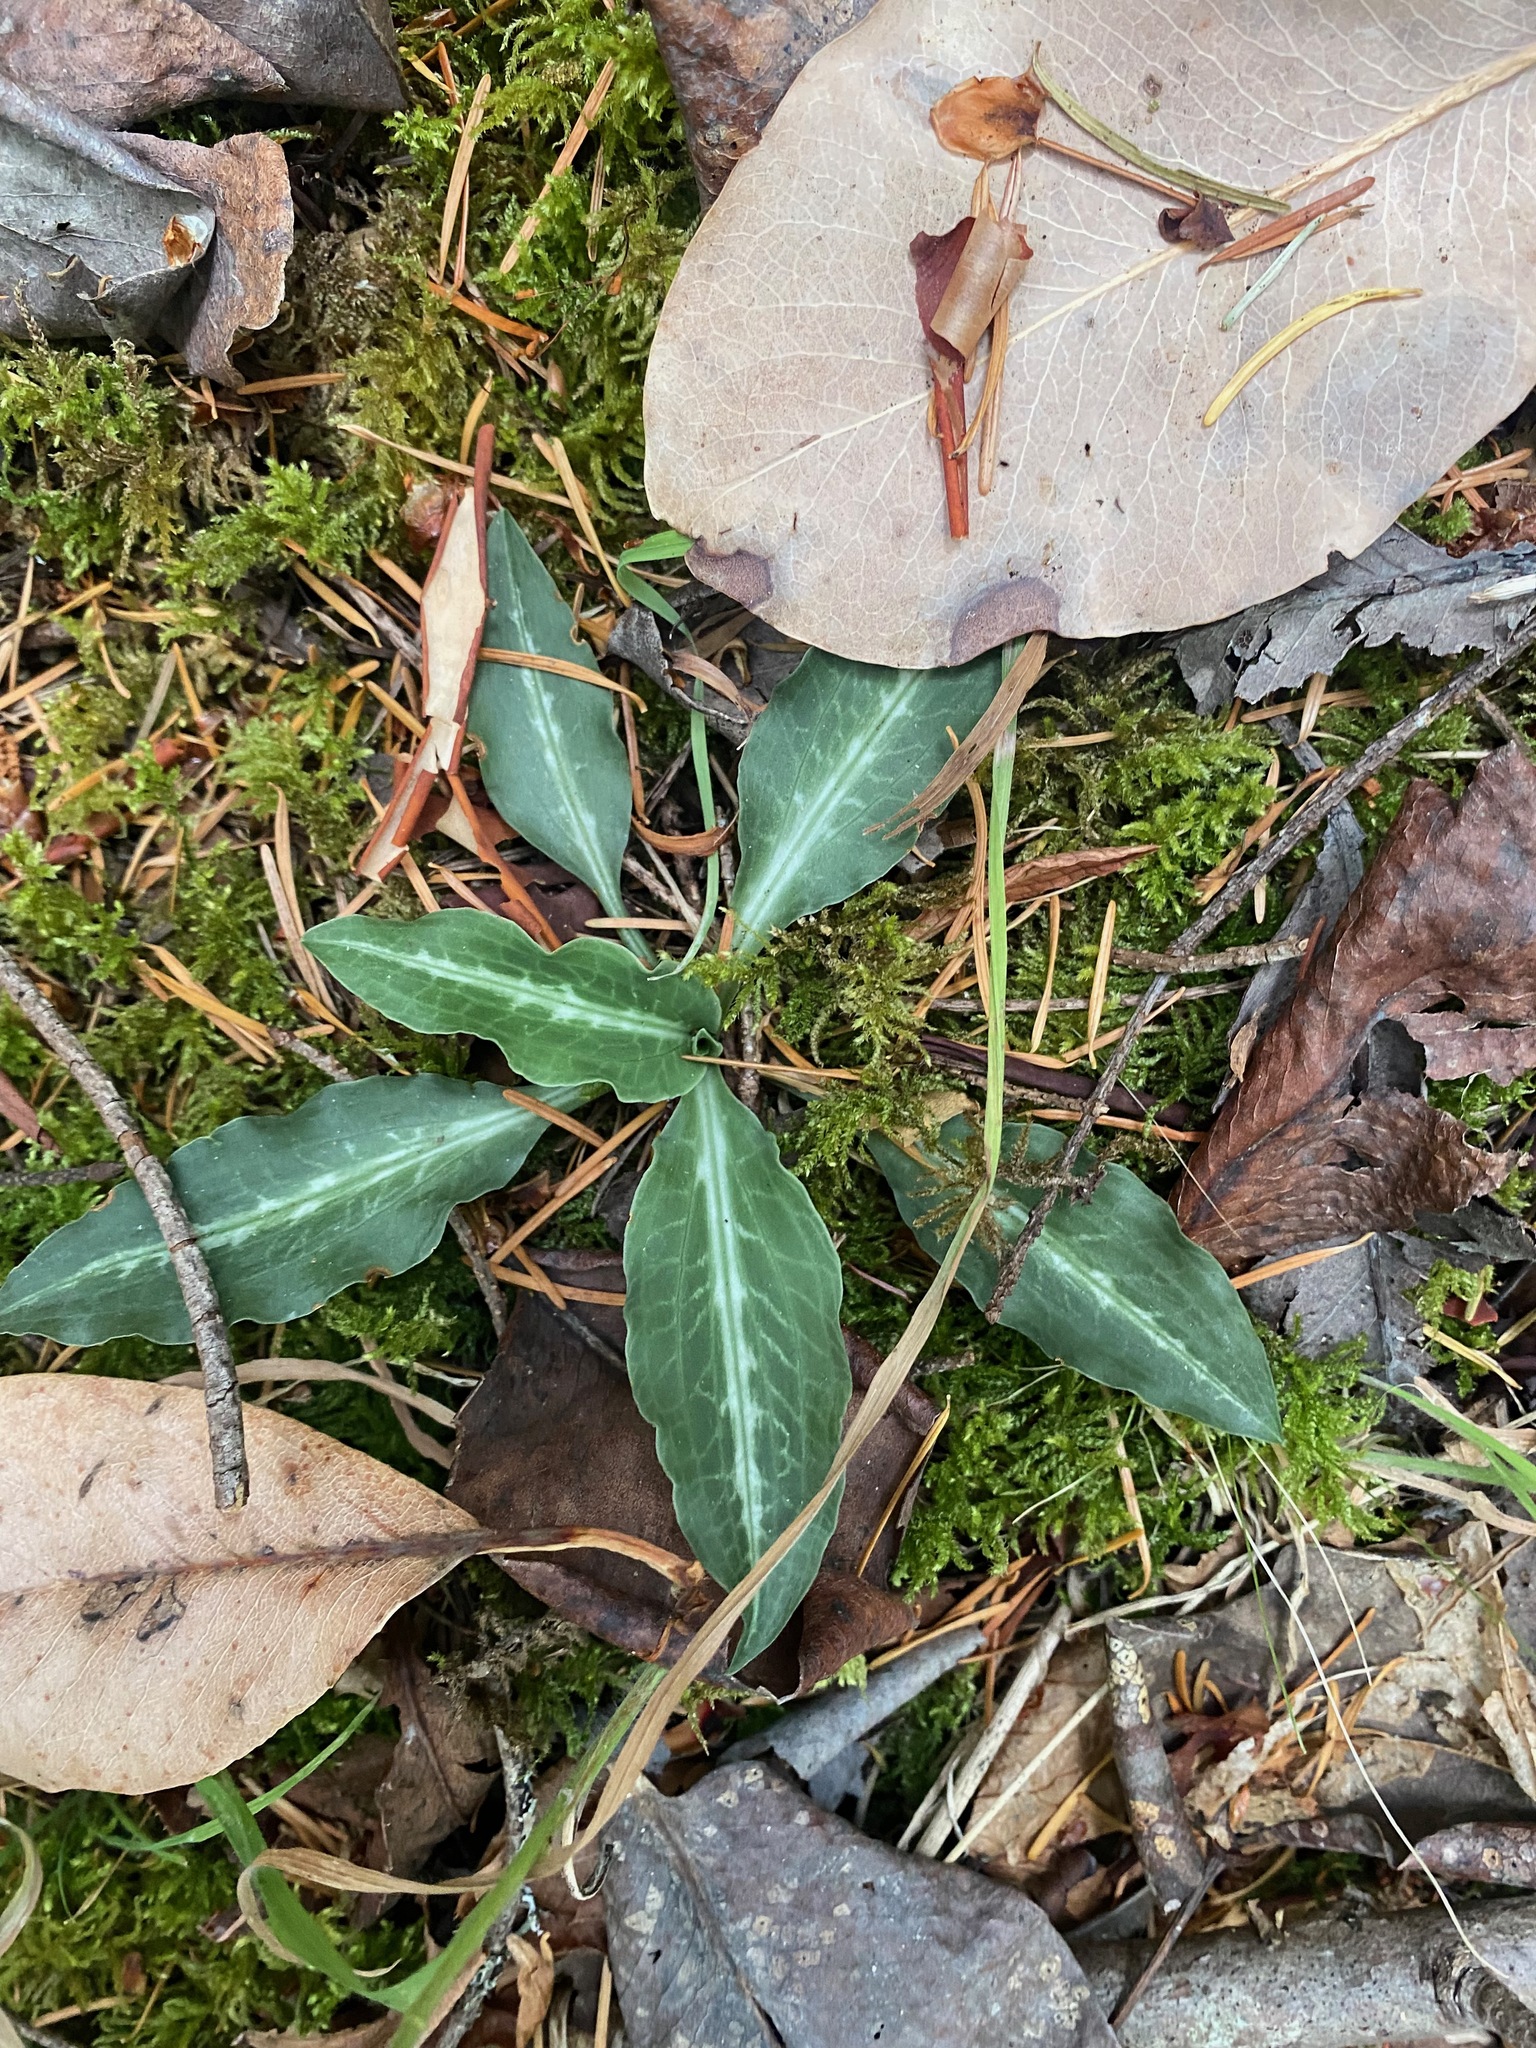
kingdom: Plantae
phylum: Tracheophyta
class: Liliopsida
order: Asparagales
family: Orchidaceae
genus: Goodyera
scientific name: Goodyera oblongifolia
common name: Giant rattlesnake-plantain
